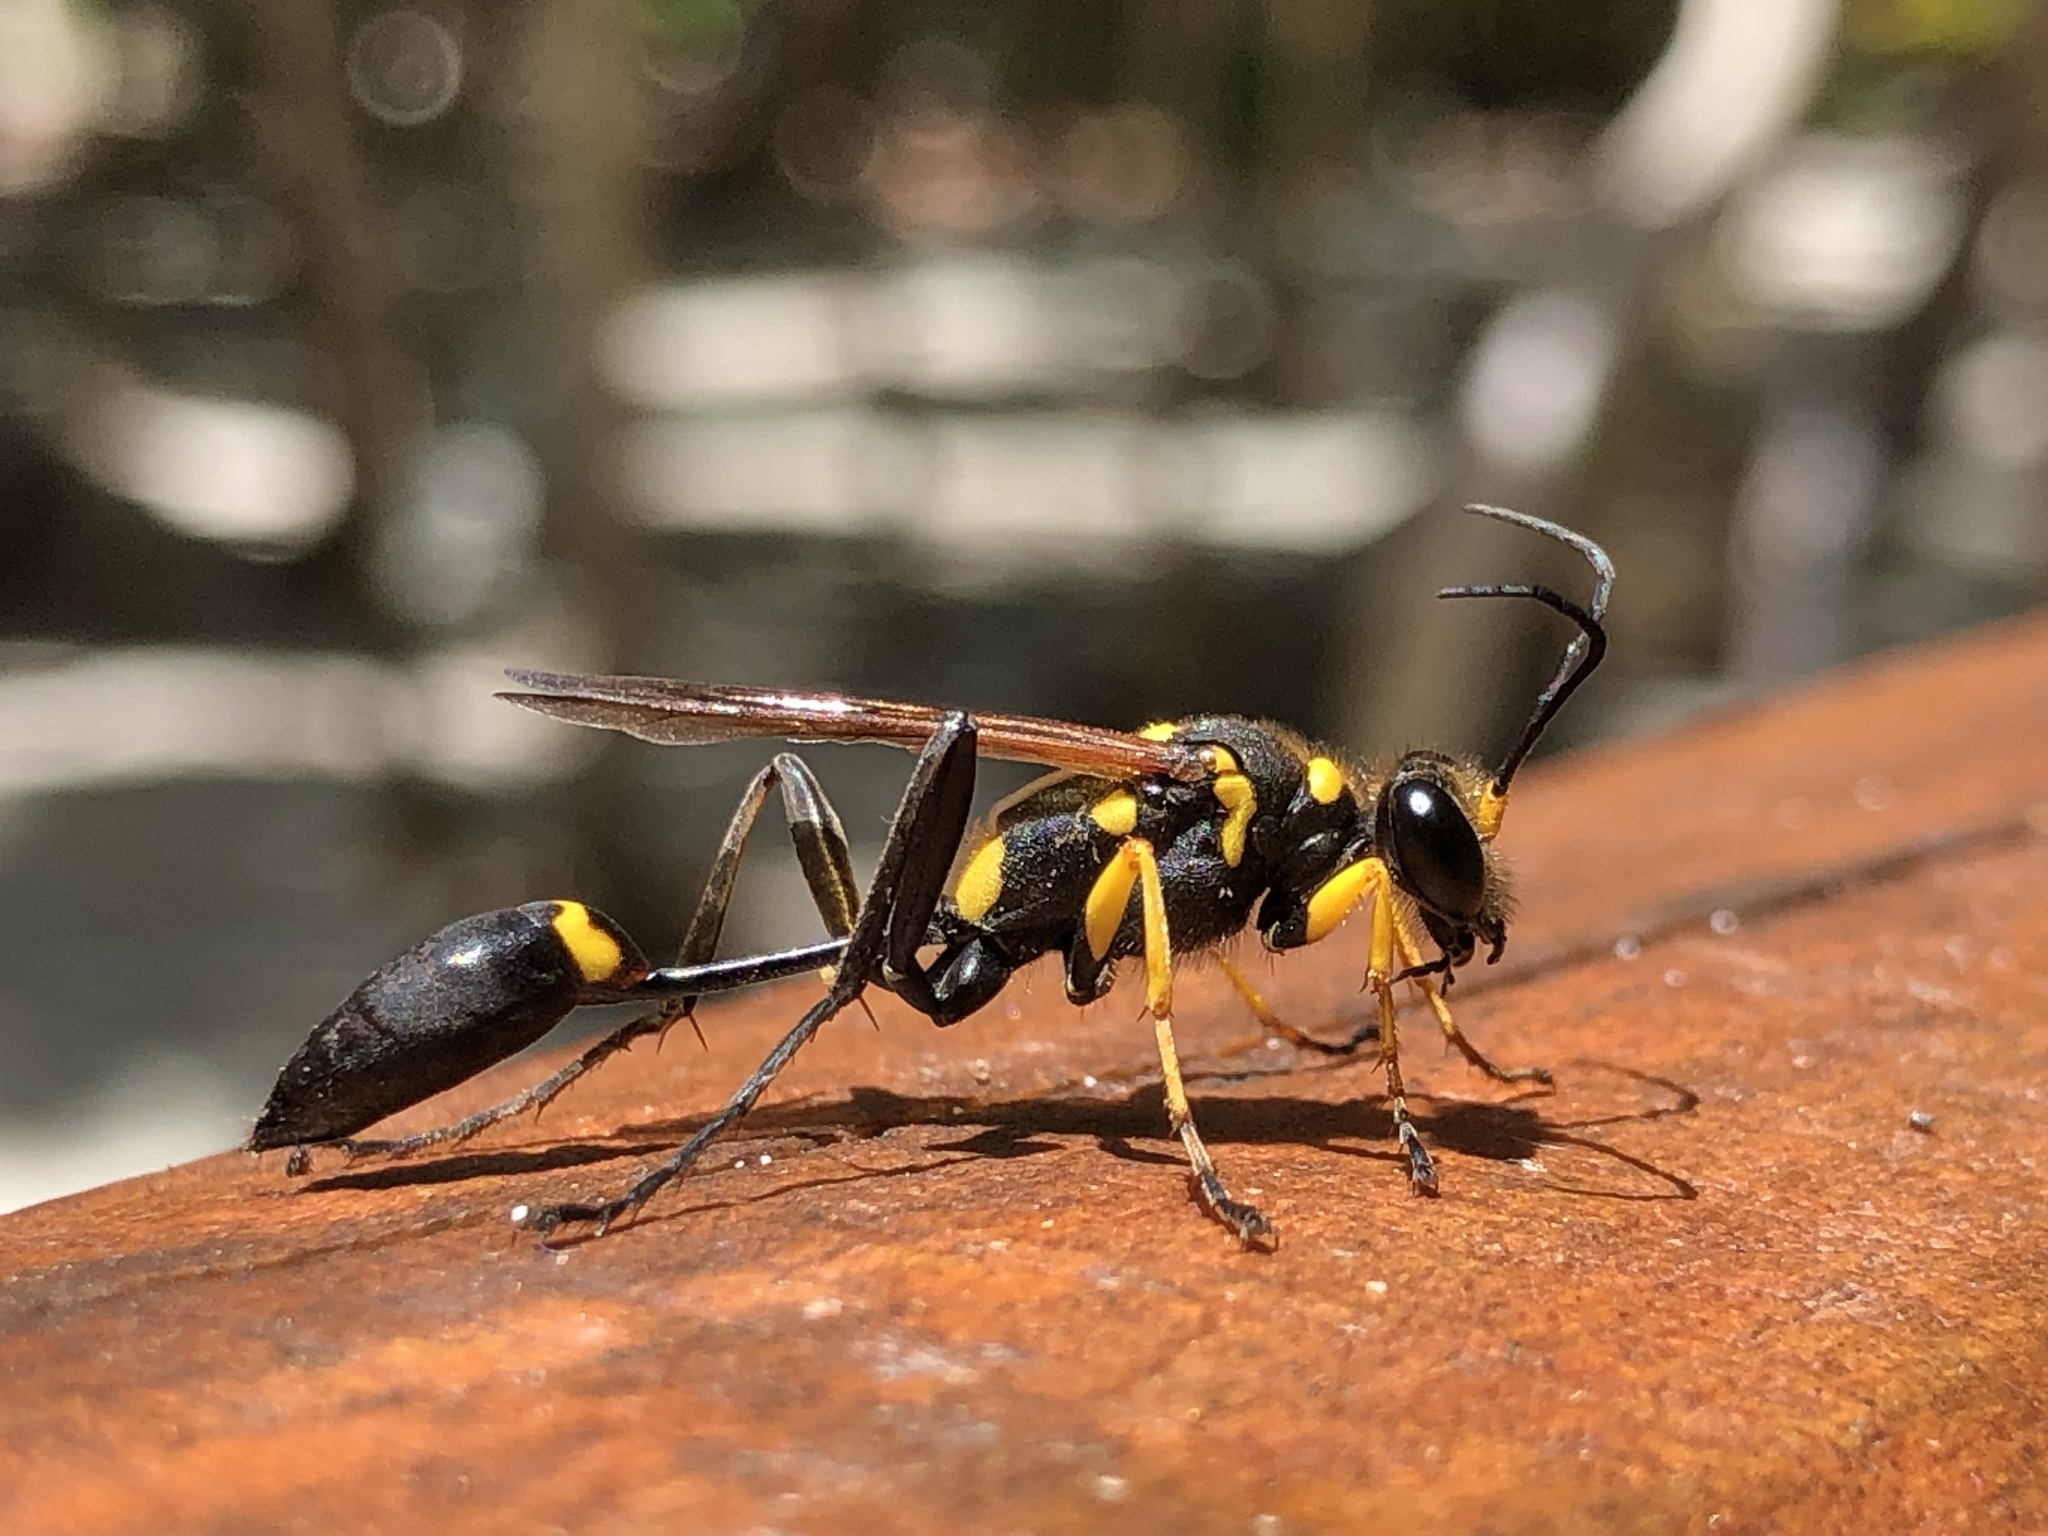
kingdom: Animalia
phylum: Arthropoda
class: Insecta
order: Hymenoptera
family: Sphecidae
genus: Sceliphron
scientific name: Sceliphron assimile
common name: Clayman's mud dauber
